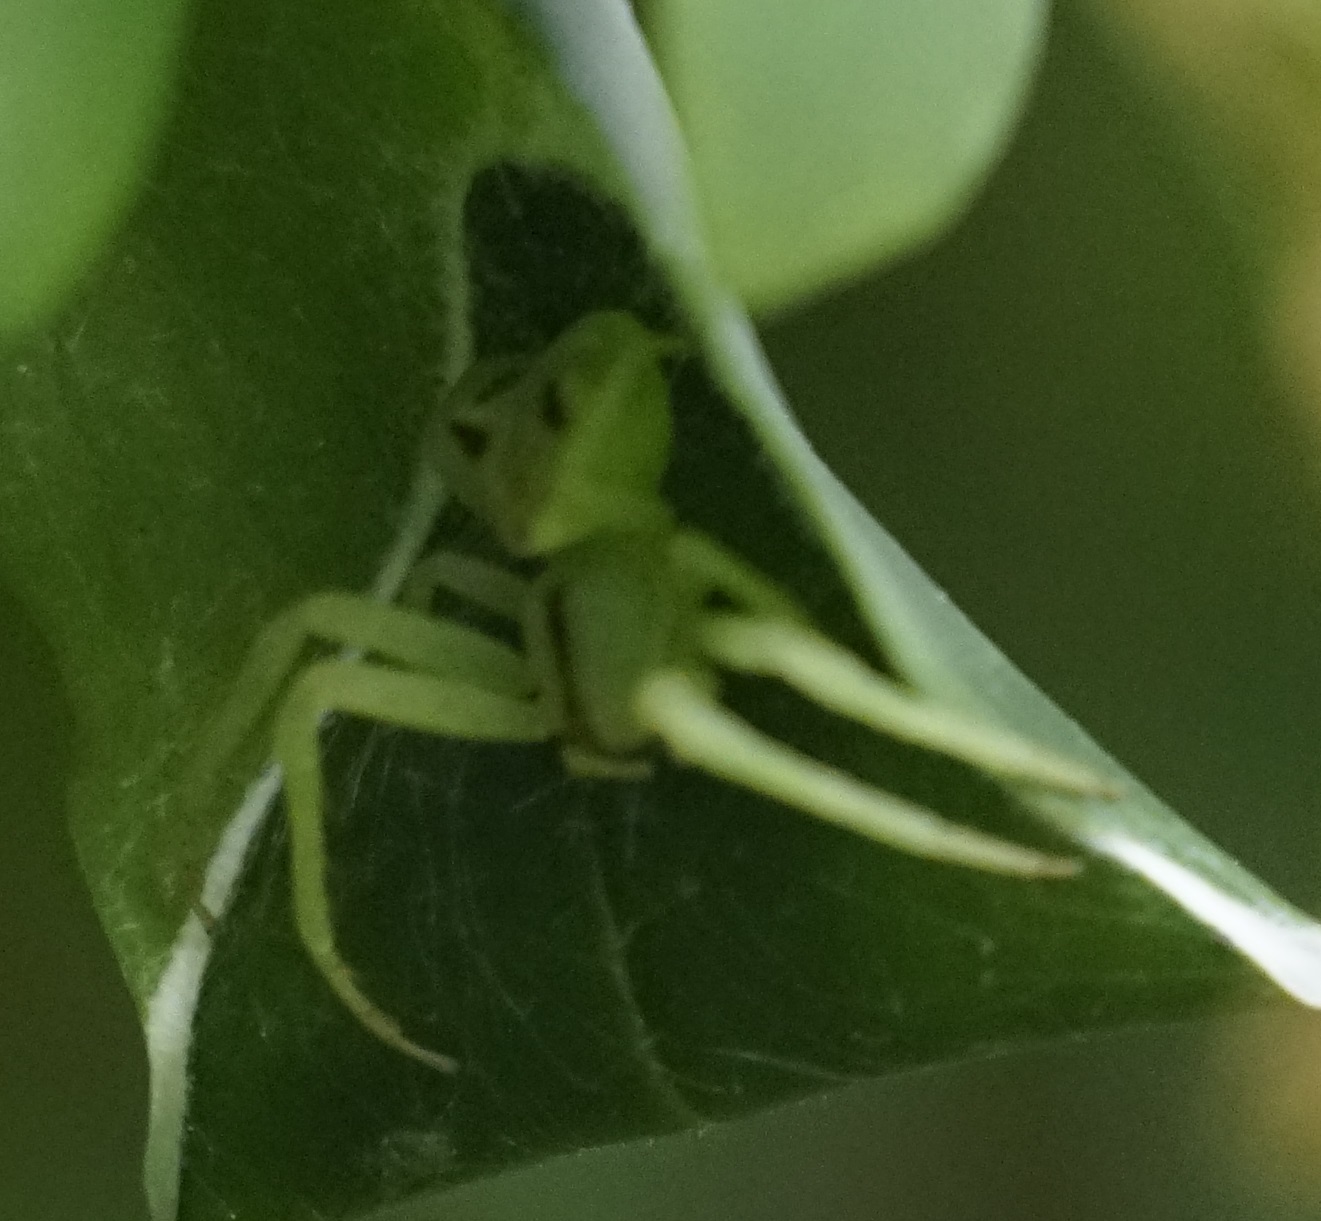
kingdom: Animalia
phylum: Arthropoda
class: Arachnida
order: Araneae
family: Thomisidae
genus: Sidymella
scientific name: Sidymella rubrosignata
